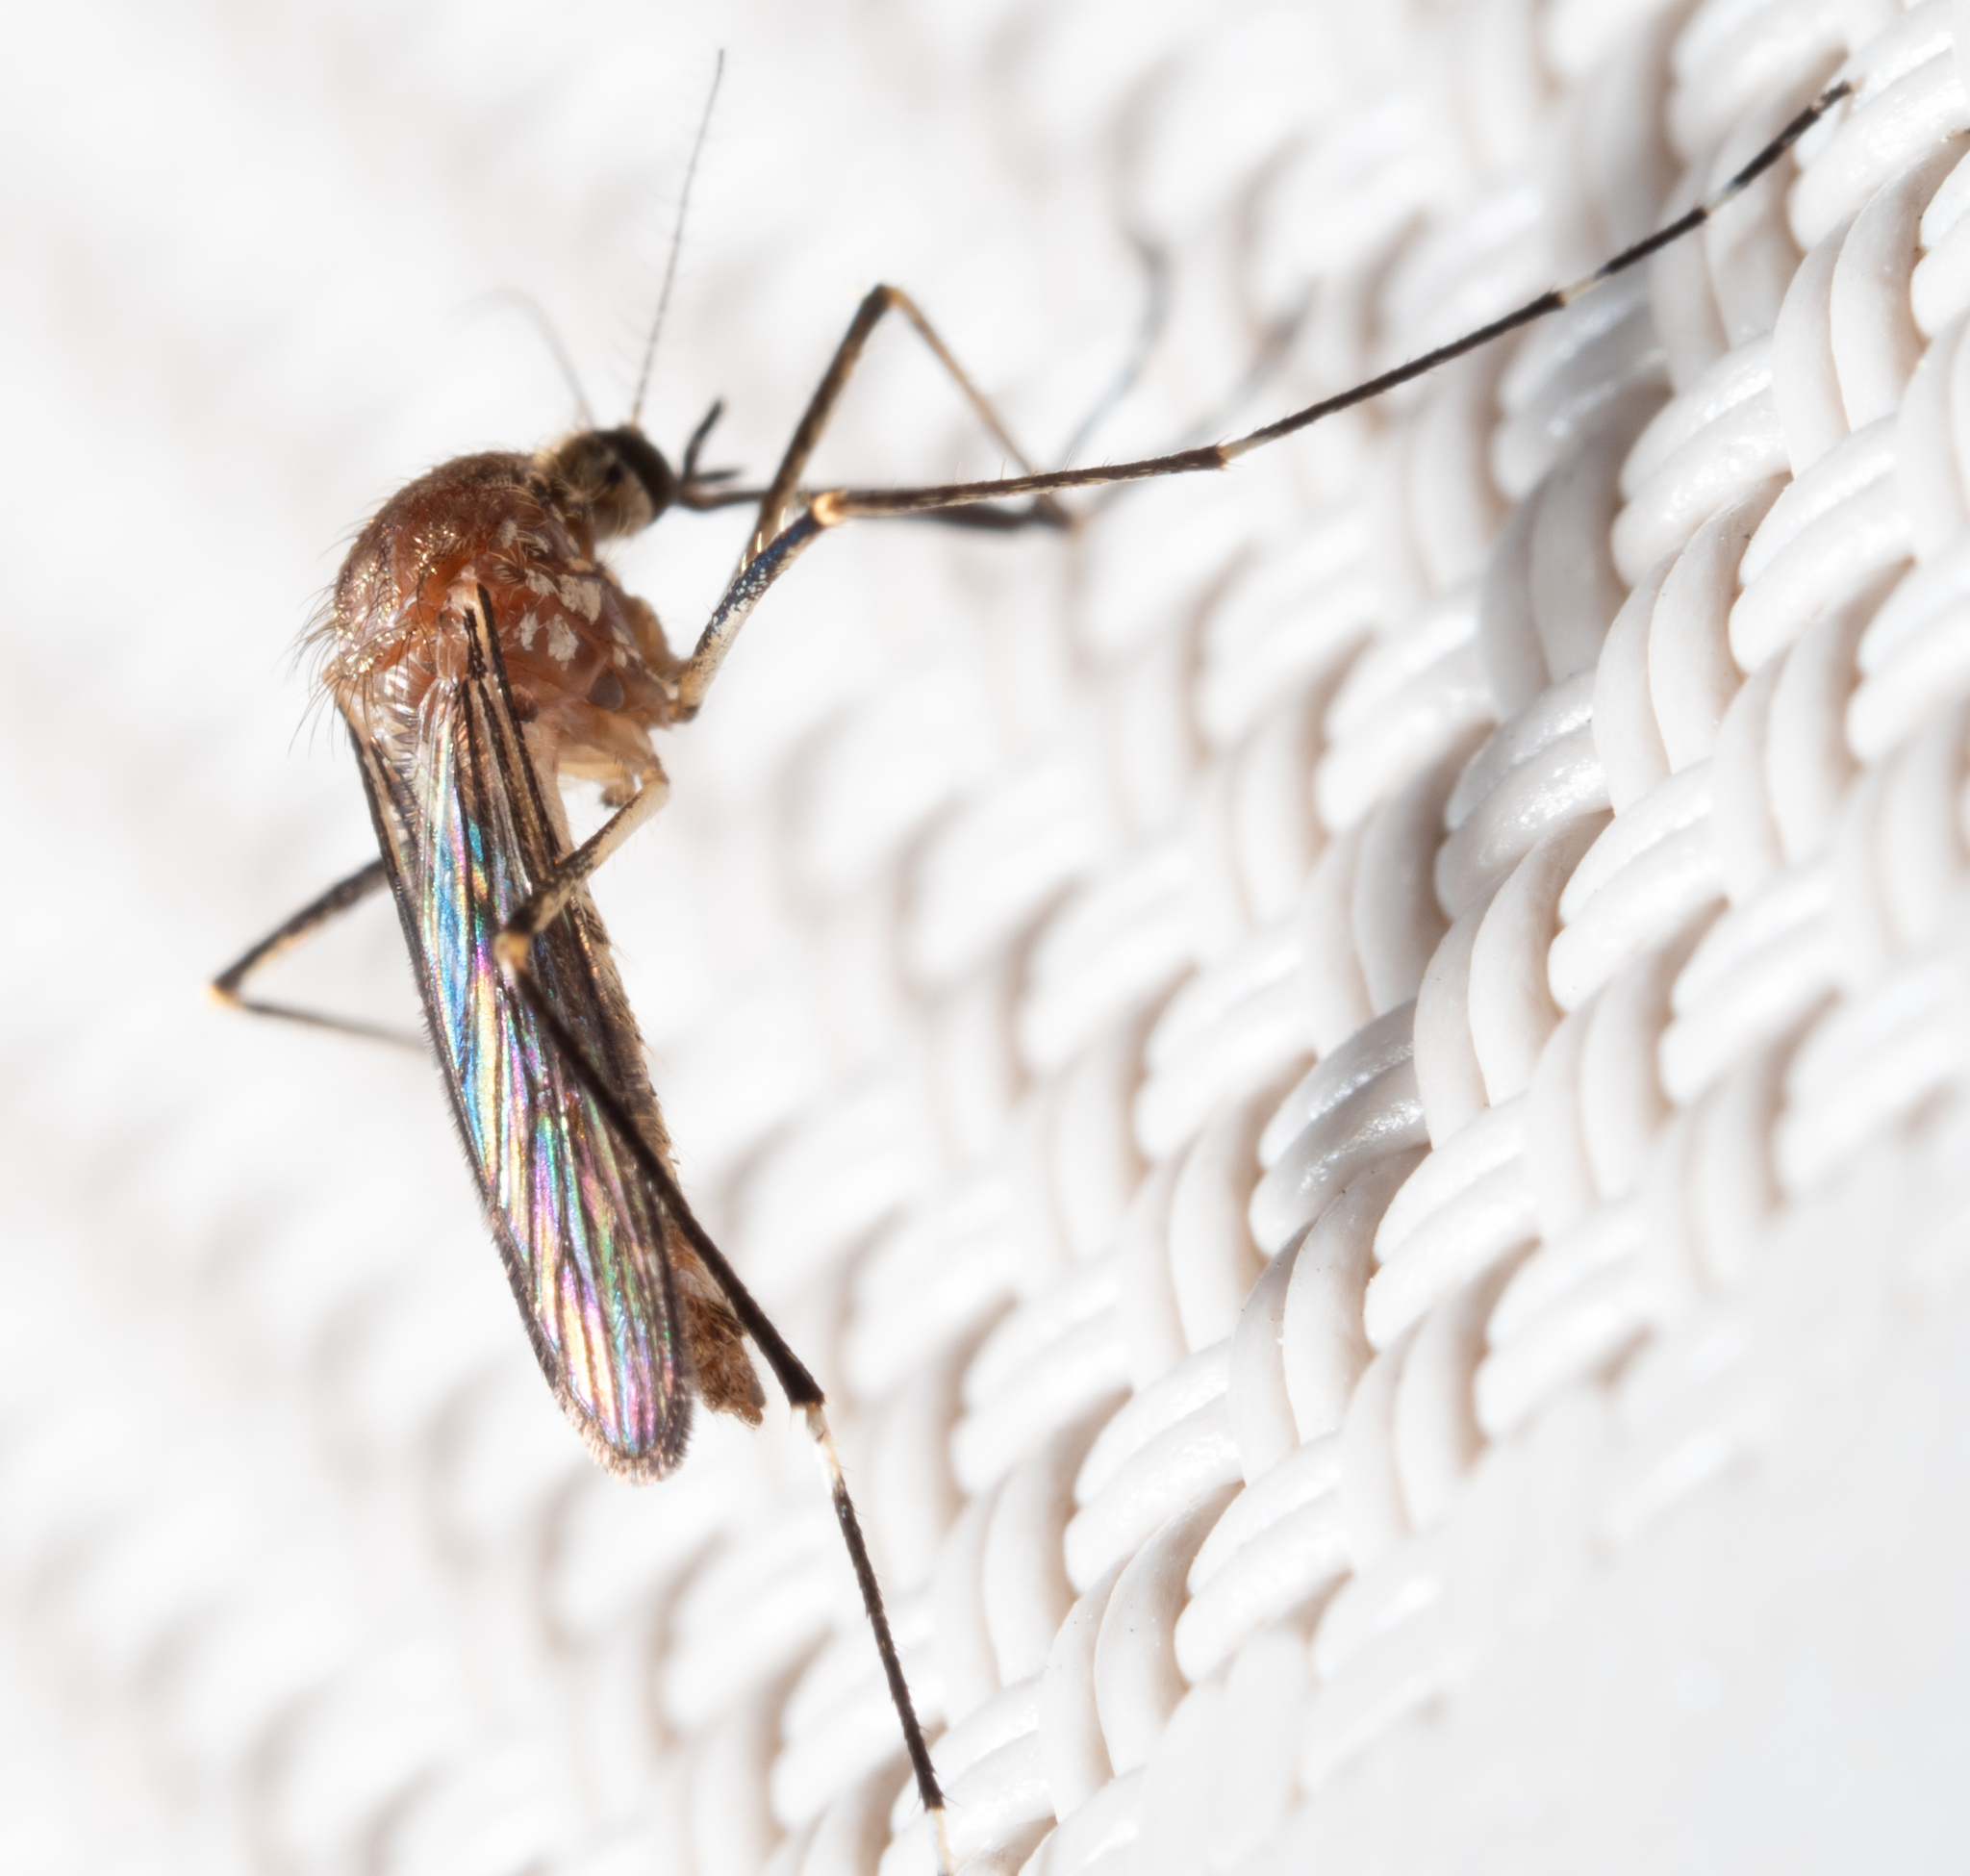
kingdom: Animalia
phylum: Arthropoda
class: Insecta
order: Diptera
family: Culicidae
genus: Aedes
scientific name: Aedes alboannulatus
